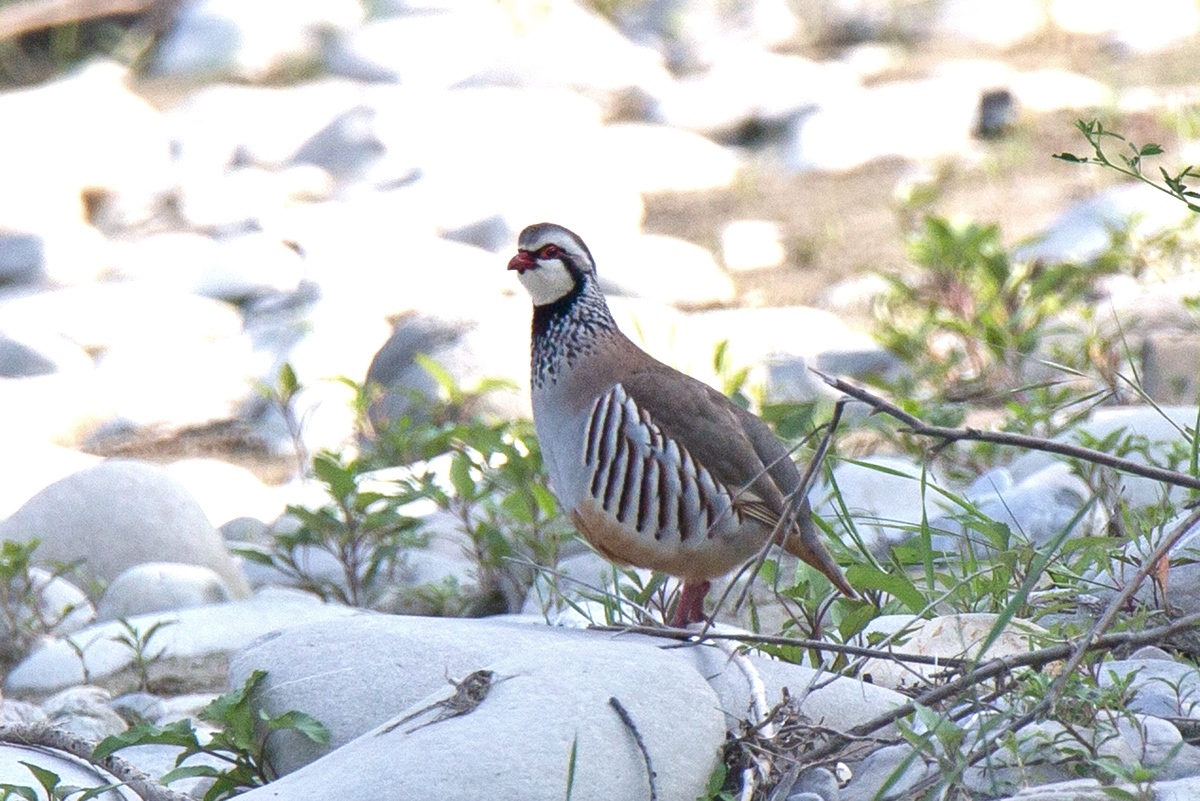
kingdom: Animalia
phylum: Chordata
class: Aves
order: Galliformes
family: Phasianidae
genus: Alectoris
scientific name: Alectoris rufa
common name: Red-legged partridge
